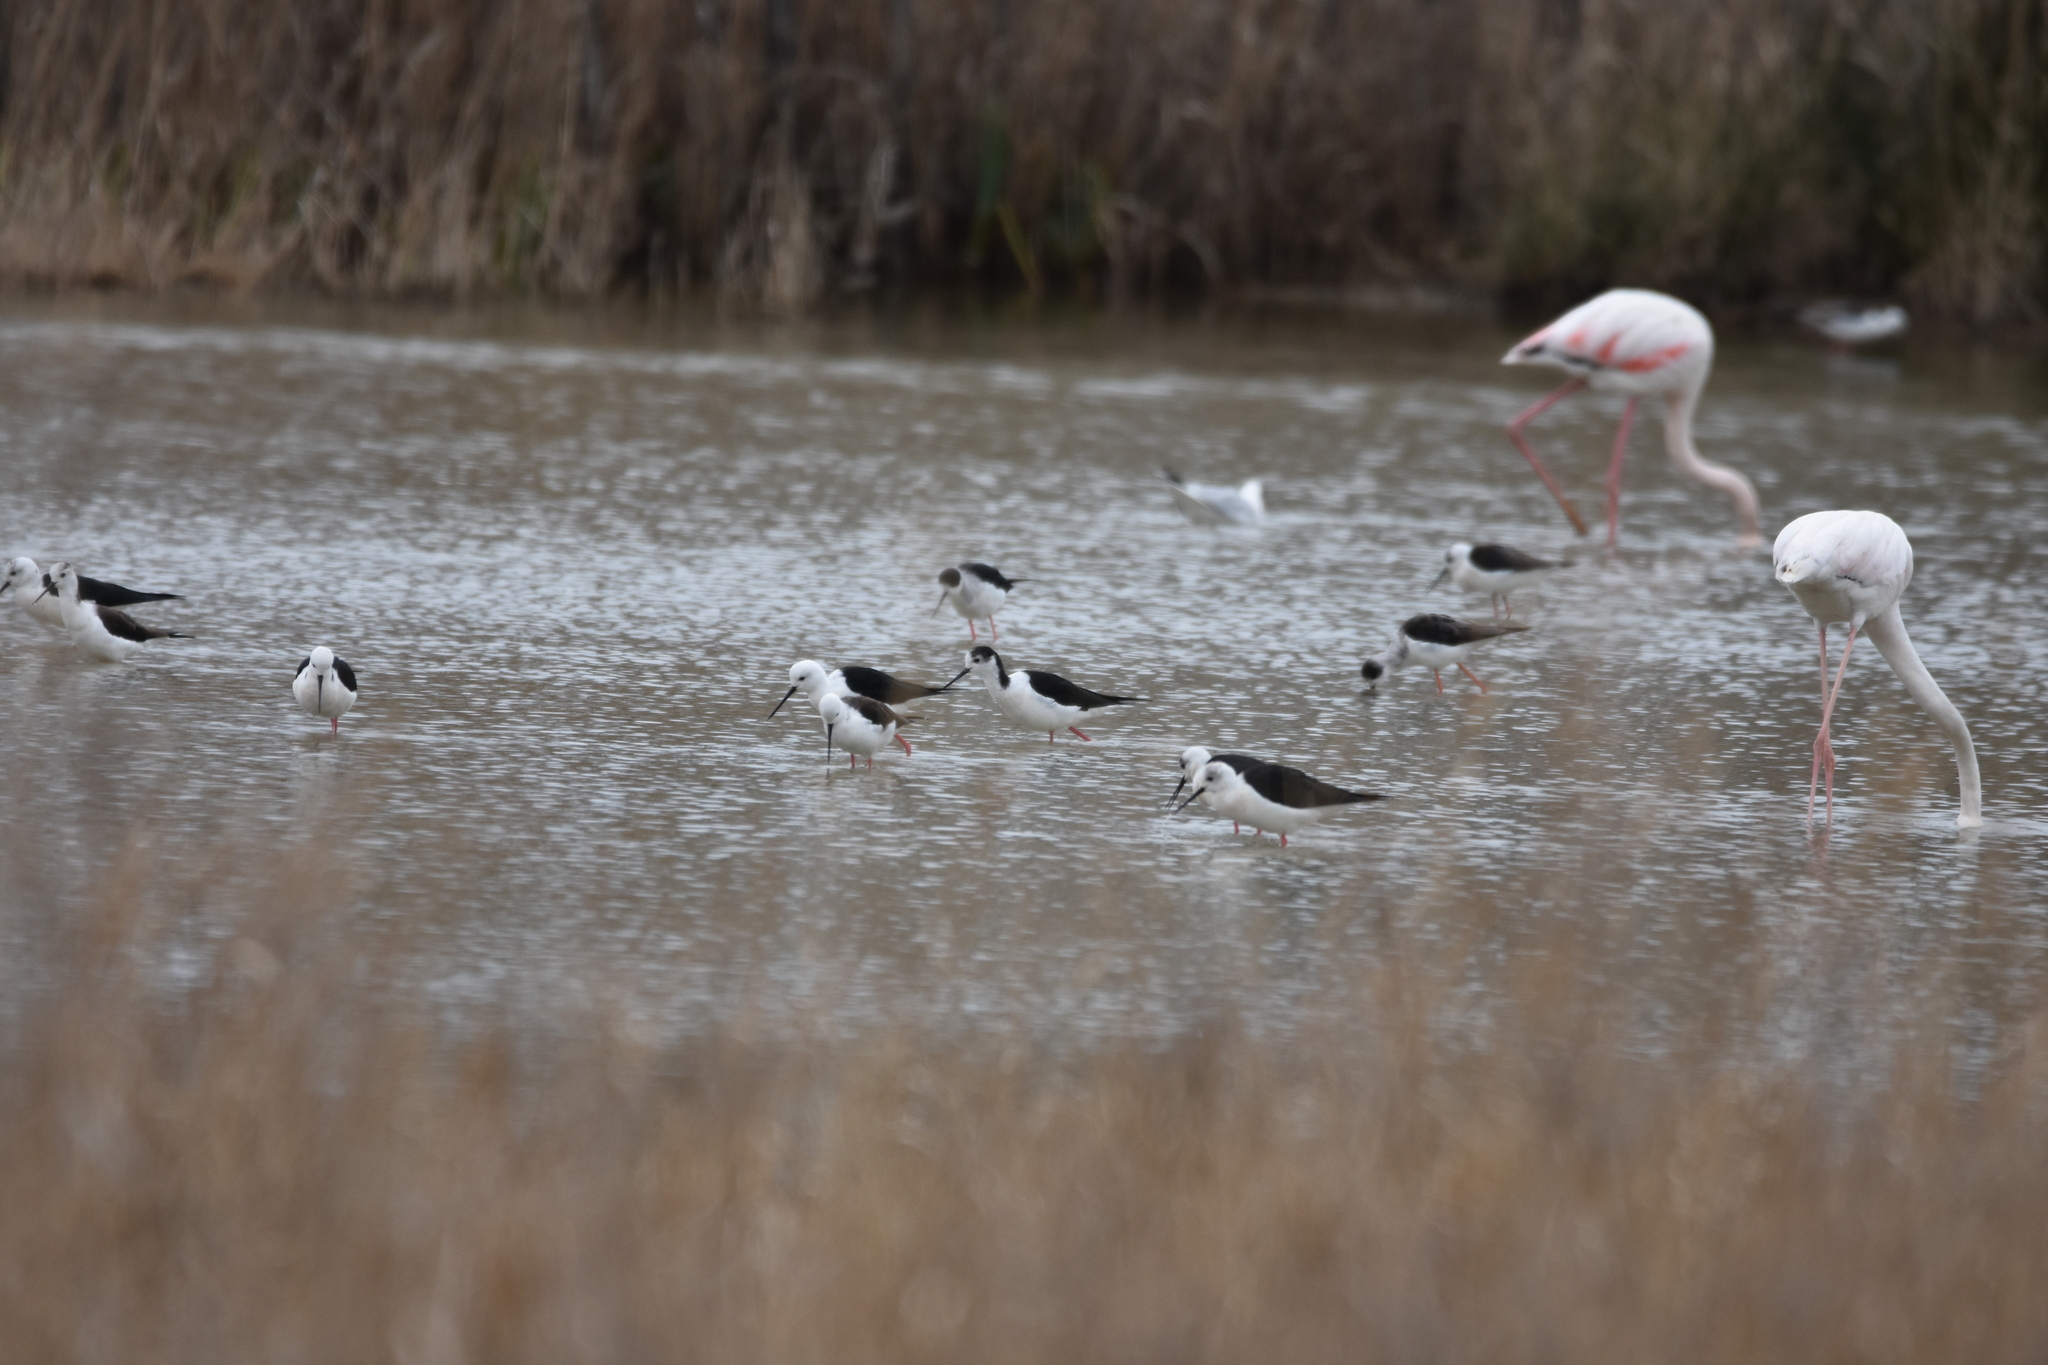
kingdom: Animalia
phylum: Chordata
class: Aves
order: Charadriiformes
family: Recurvirostridae
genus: Himantopus
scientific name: Himantopus himantopus
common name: Black-winged stilt
